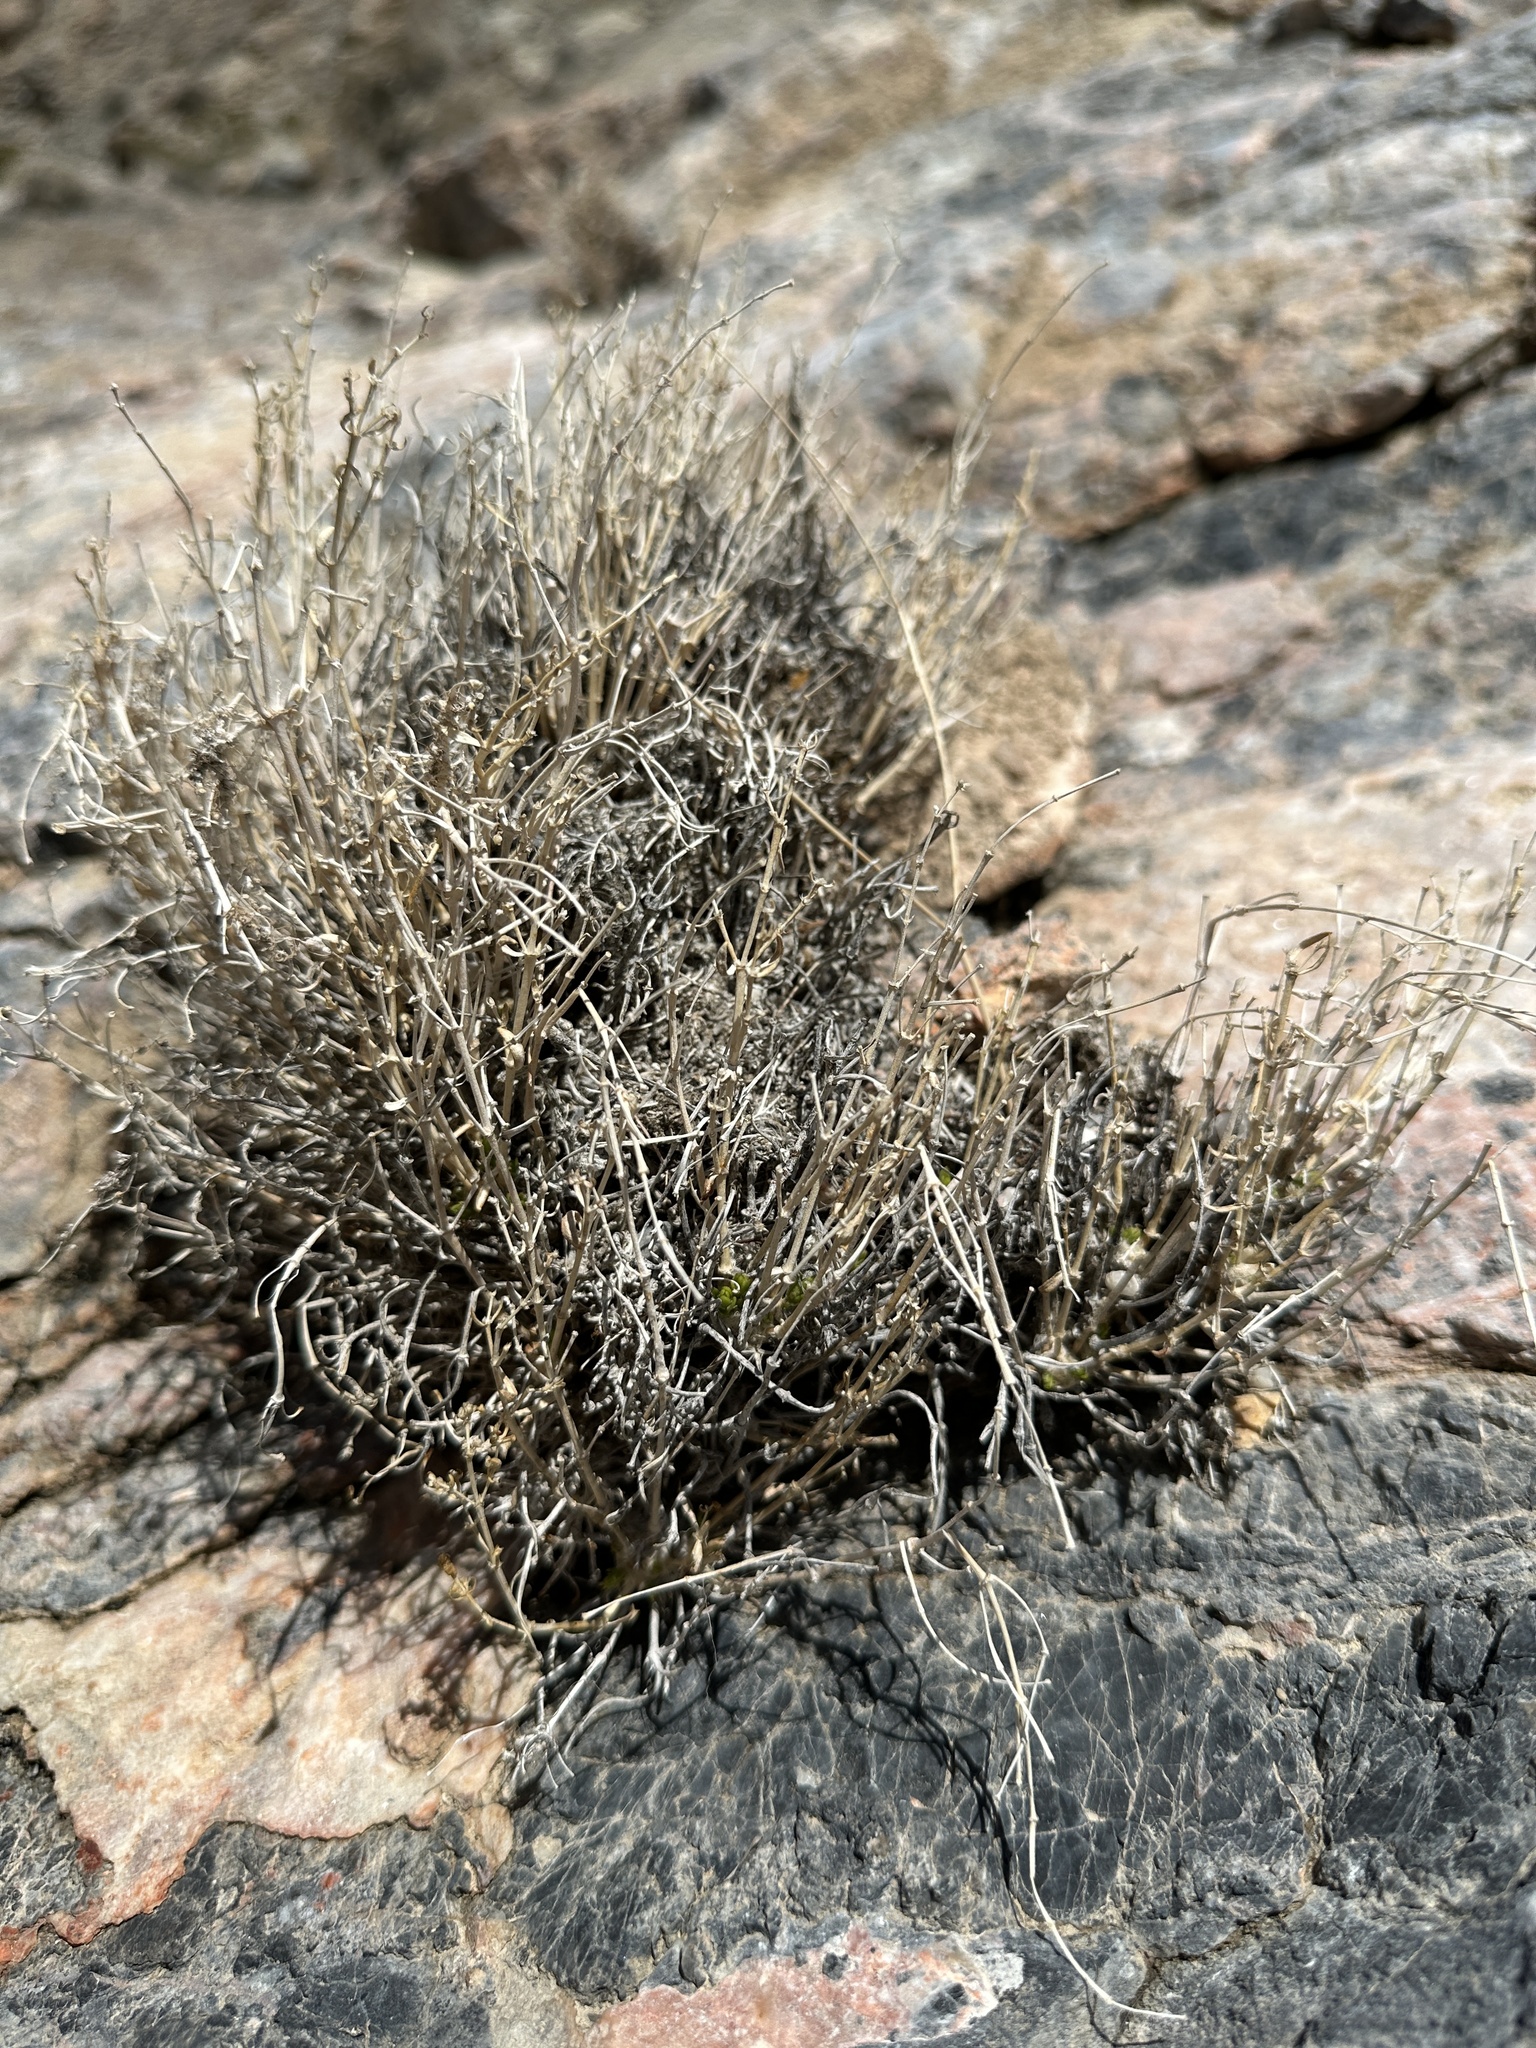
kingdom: Plantae
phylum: Tracheophyta
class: Magnoliopsida
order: Caryophyllales
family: Caryophyllaceae
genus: Scopulophila
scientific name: Scopulophila rixfordii
